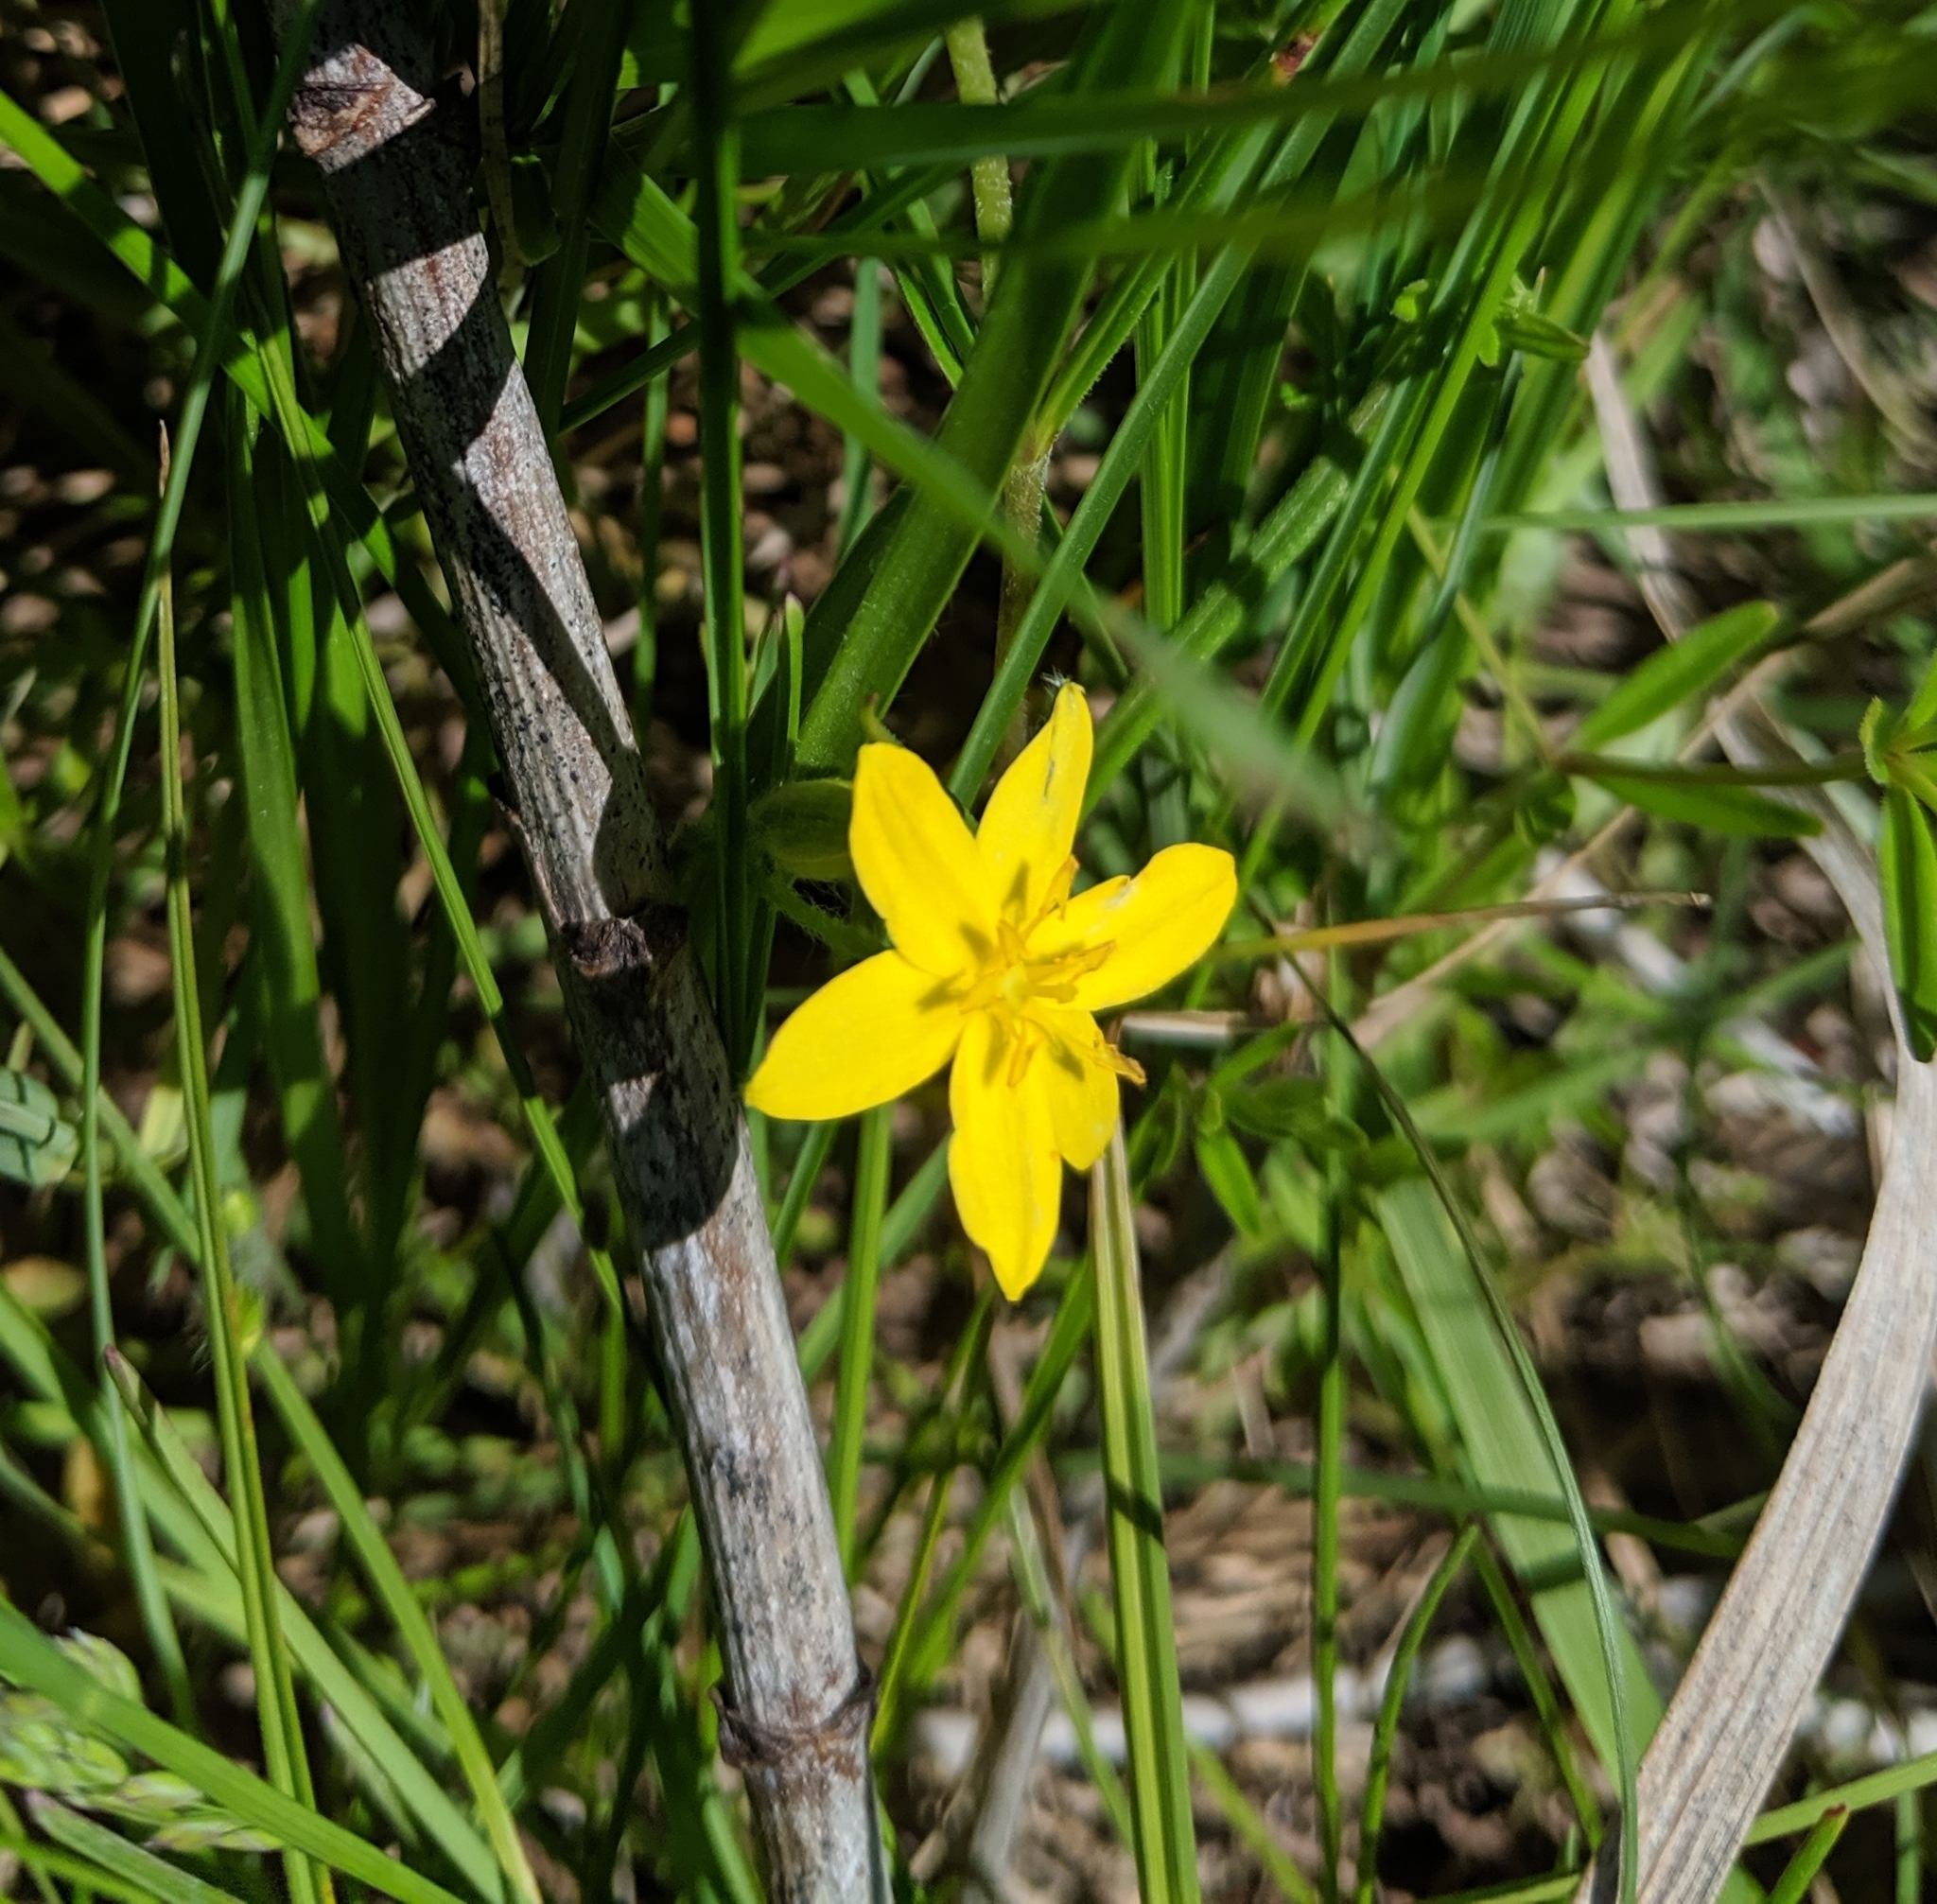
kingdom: Plantae
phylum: Tracheophyta
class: Liliopsida
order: Asparagales
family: Hypoxidaceae
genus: Hypoxis
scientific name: Hypoxis hirsuta
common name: Common goldstar
